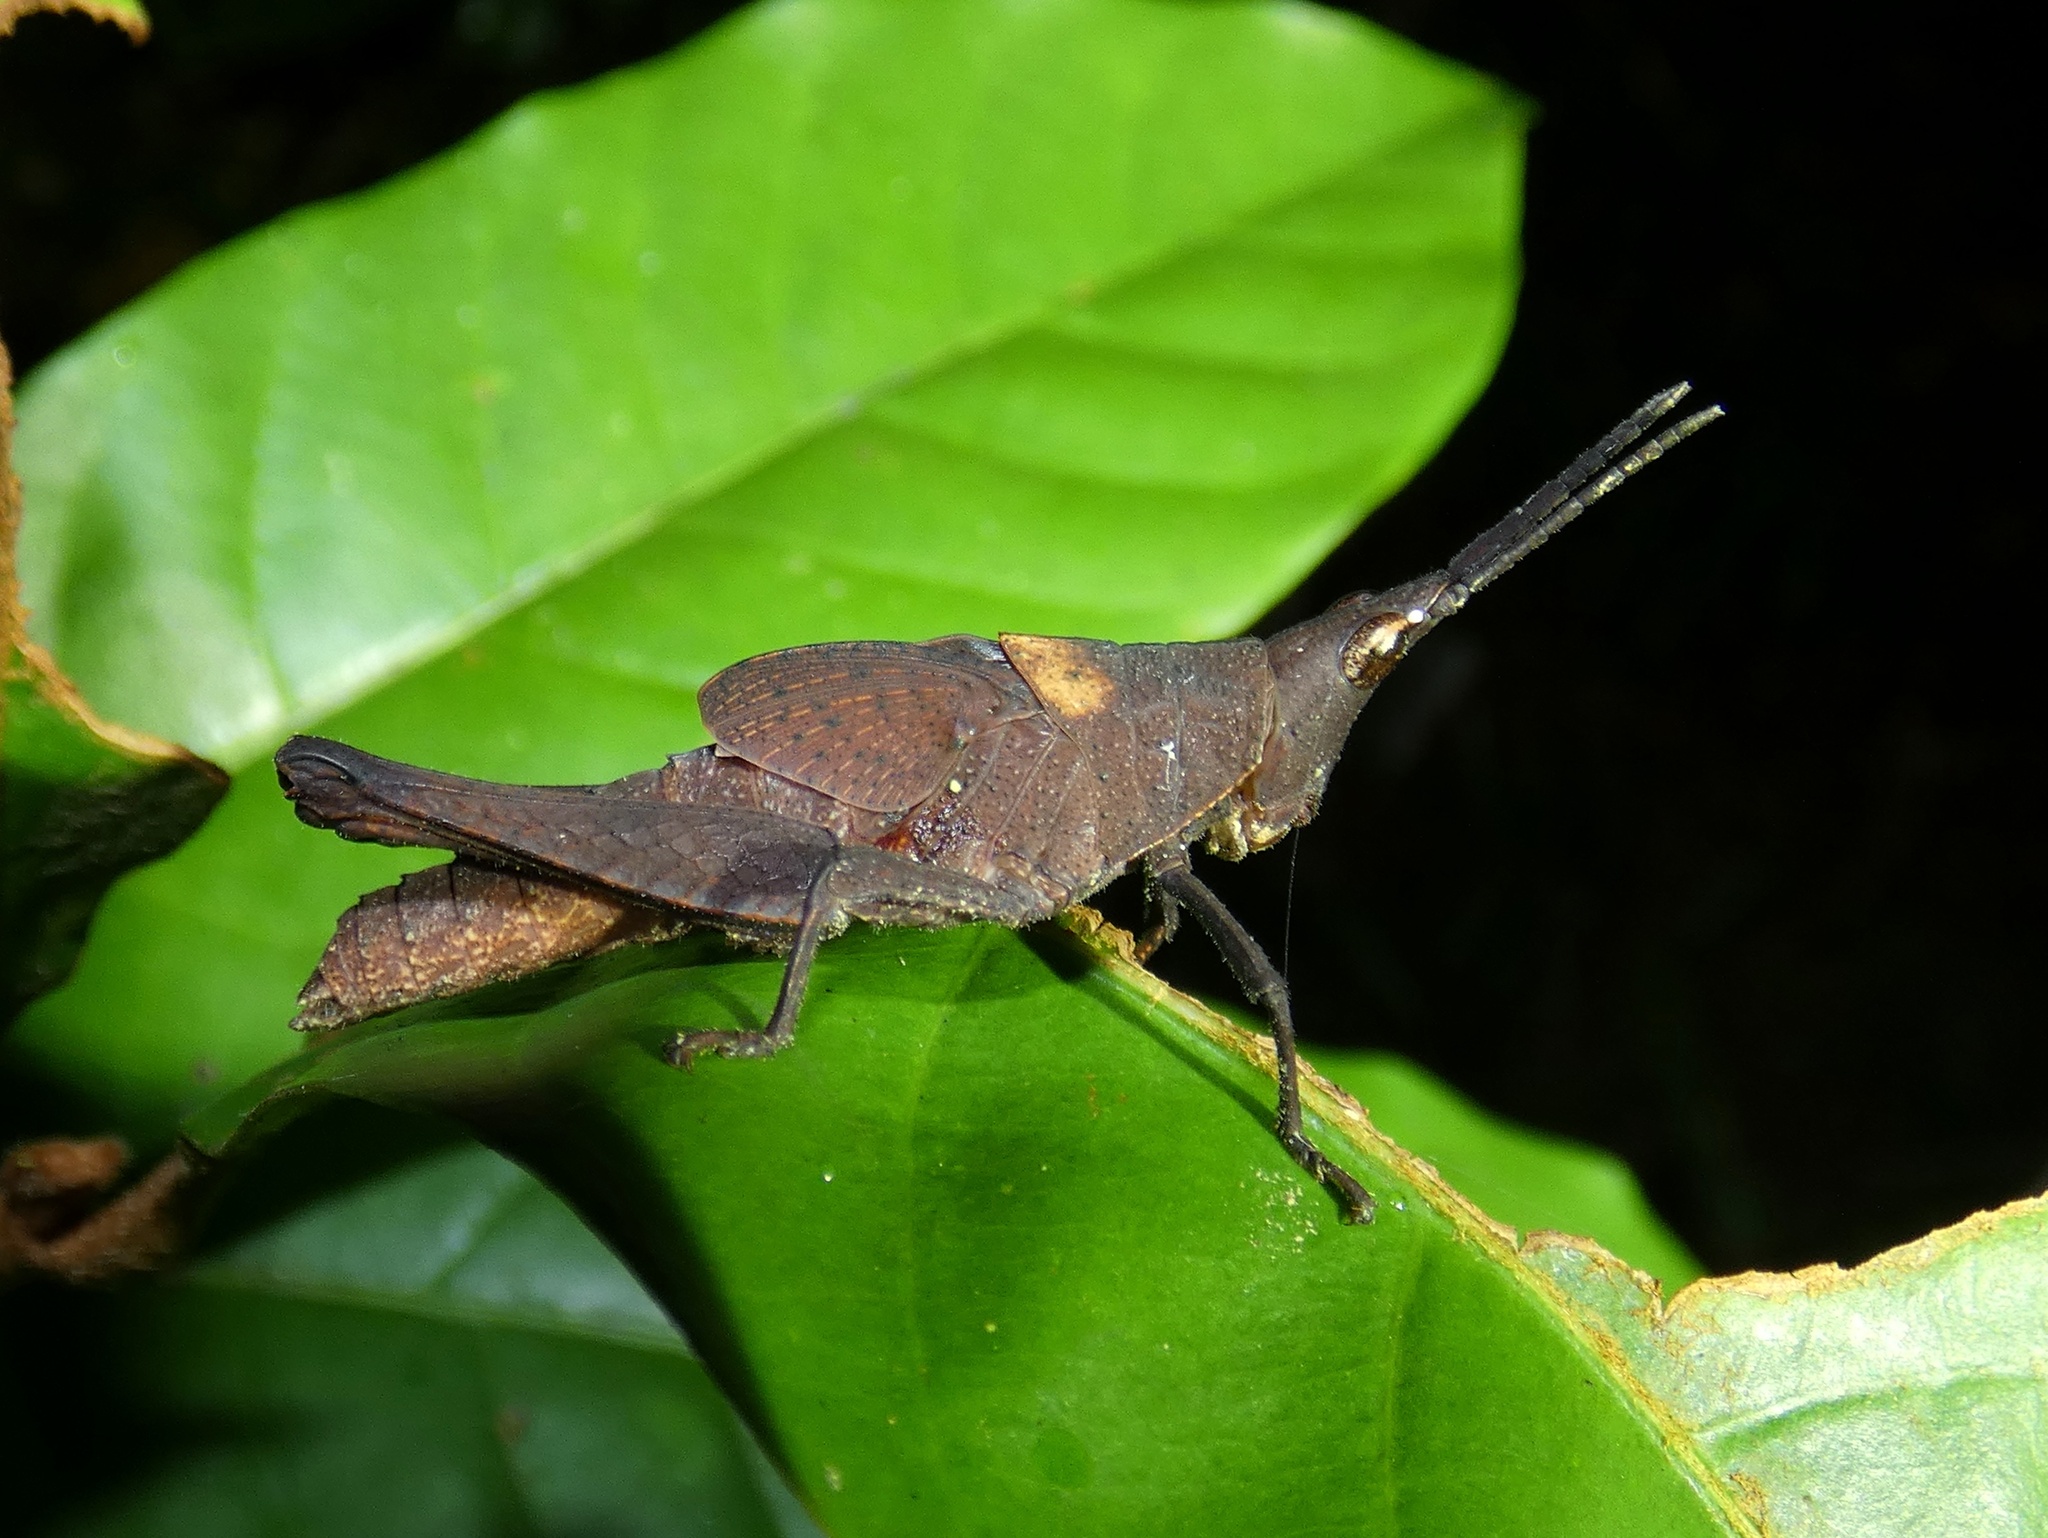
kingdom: Animalia
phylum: Arthropoda
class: Insecta
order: Orthoptera
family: Pyrgomorphidae
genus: Desmoptera
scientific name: Desmoptera truncatipennis
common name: Large forest pyrgomorph
